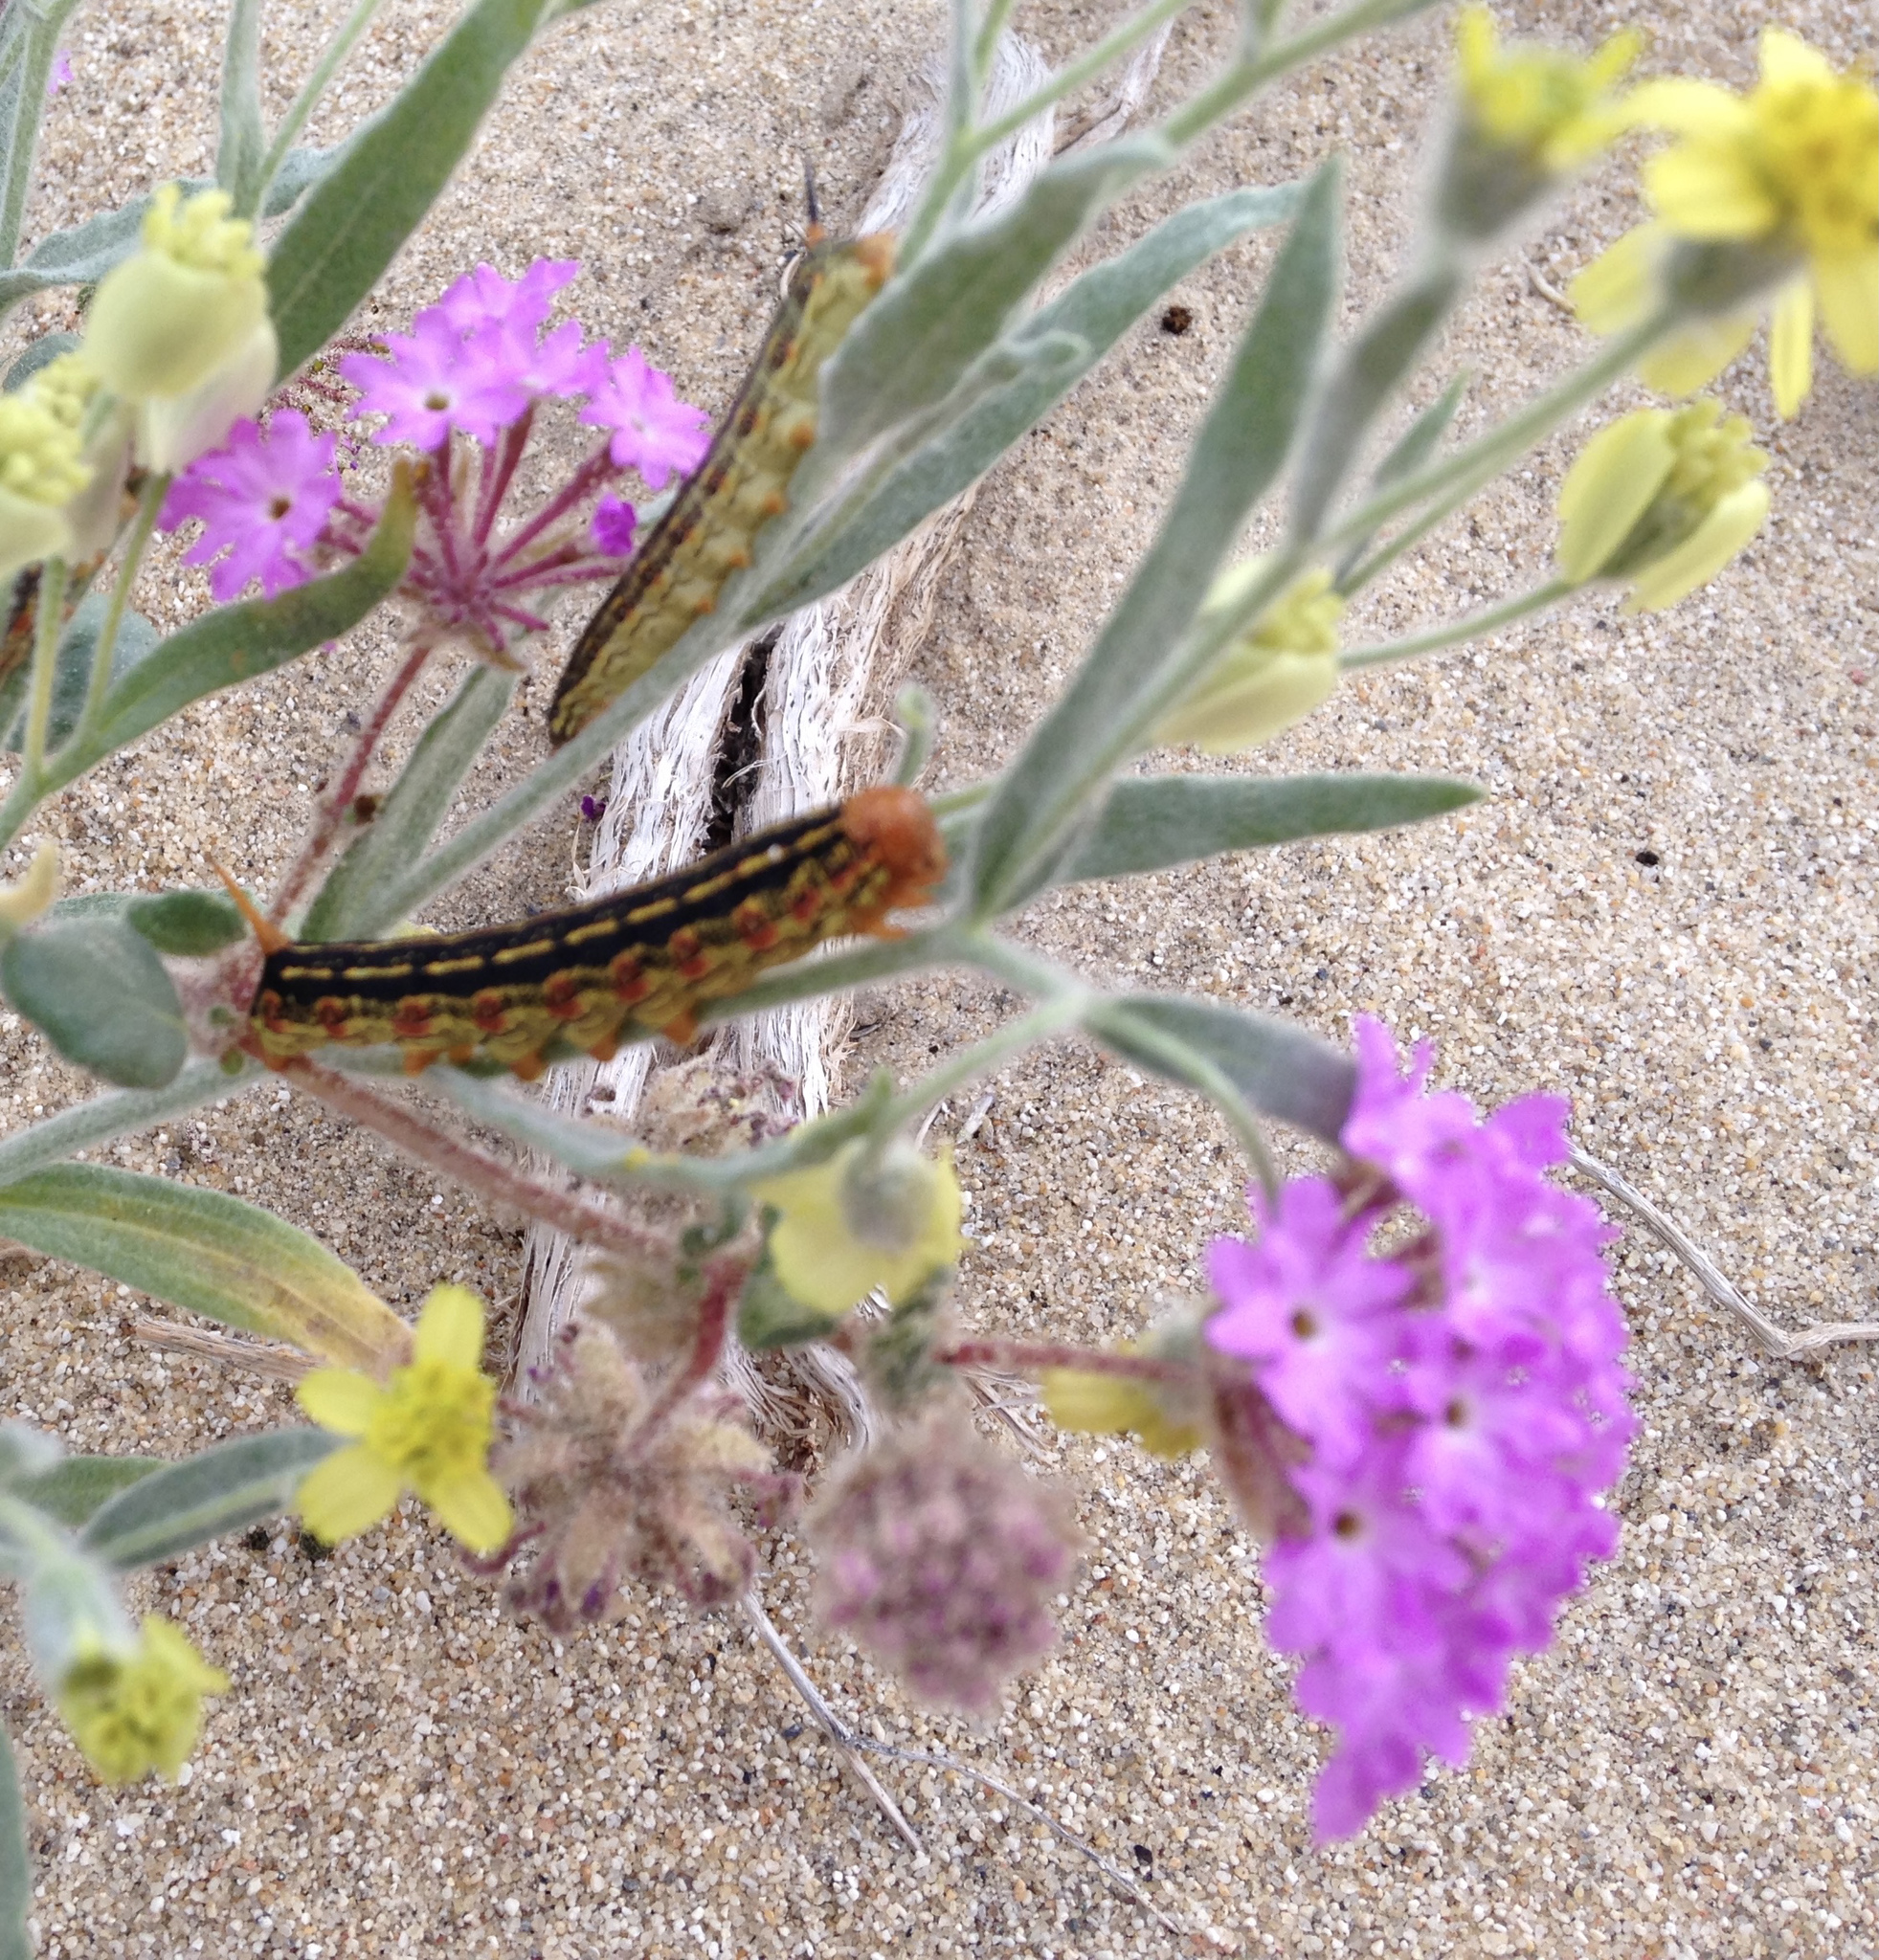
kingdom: Plantae
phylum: Tracheophyta
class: Magnoliopsida
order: Caryophyllales
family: Nyctaginaceae
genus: Abronia
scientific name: Abronia villosa
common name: Desert sand-verbena
